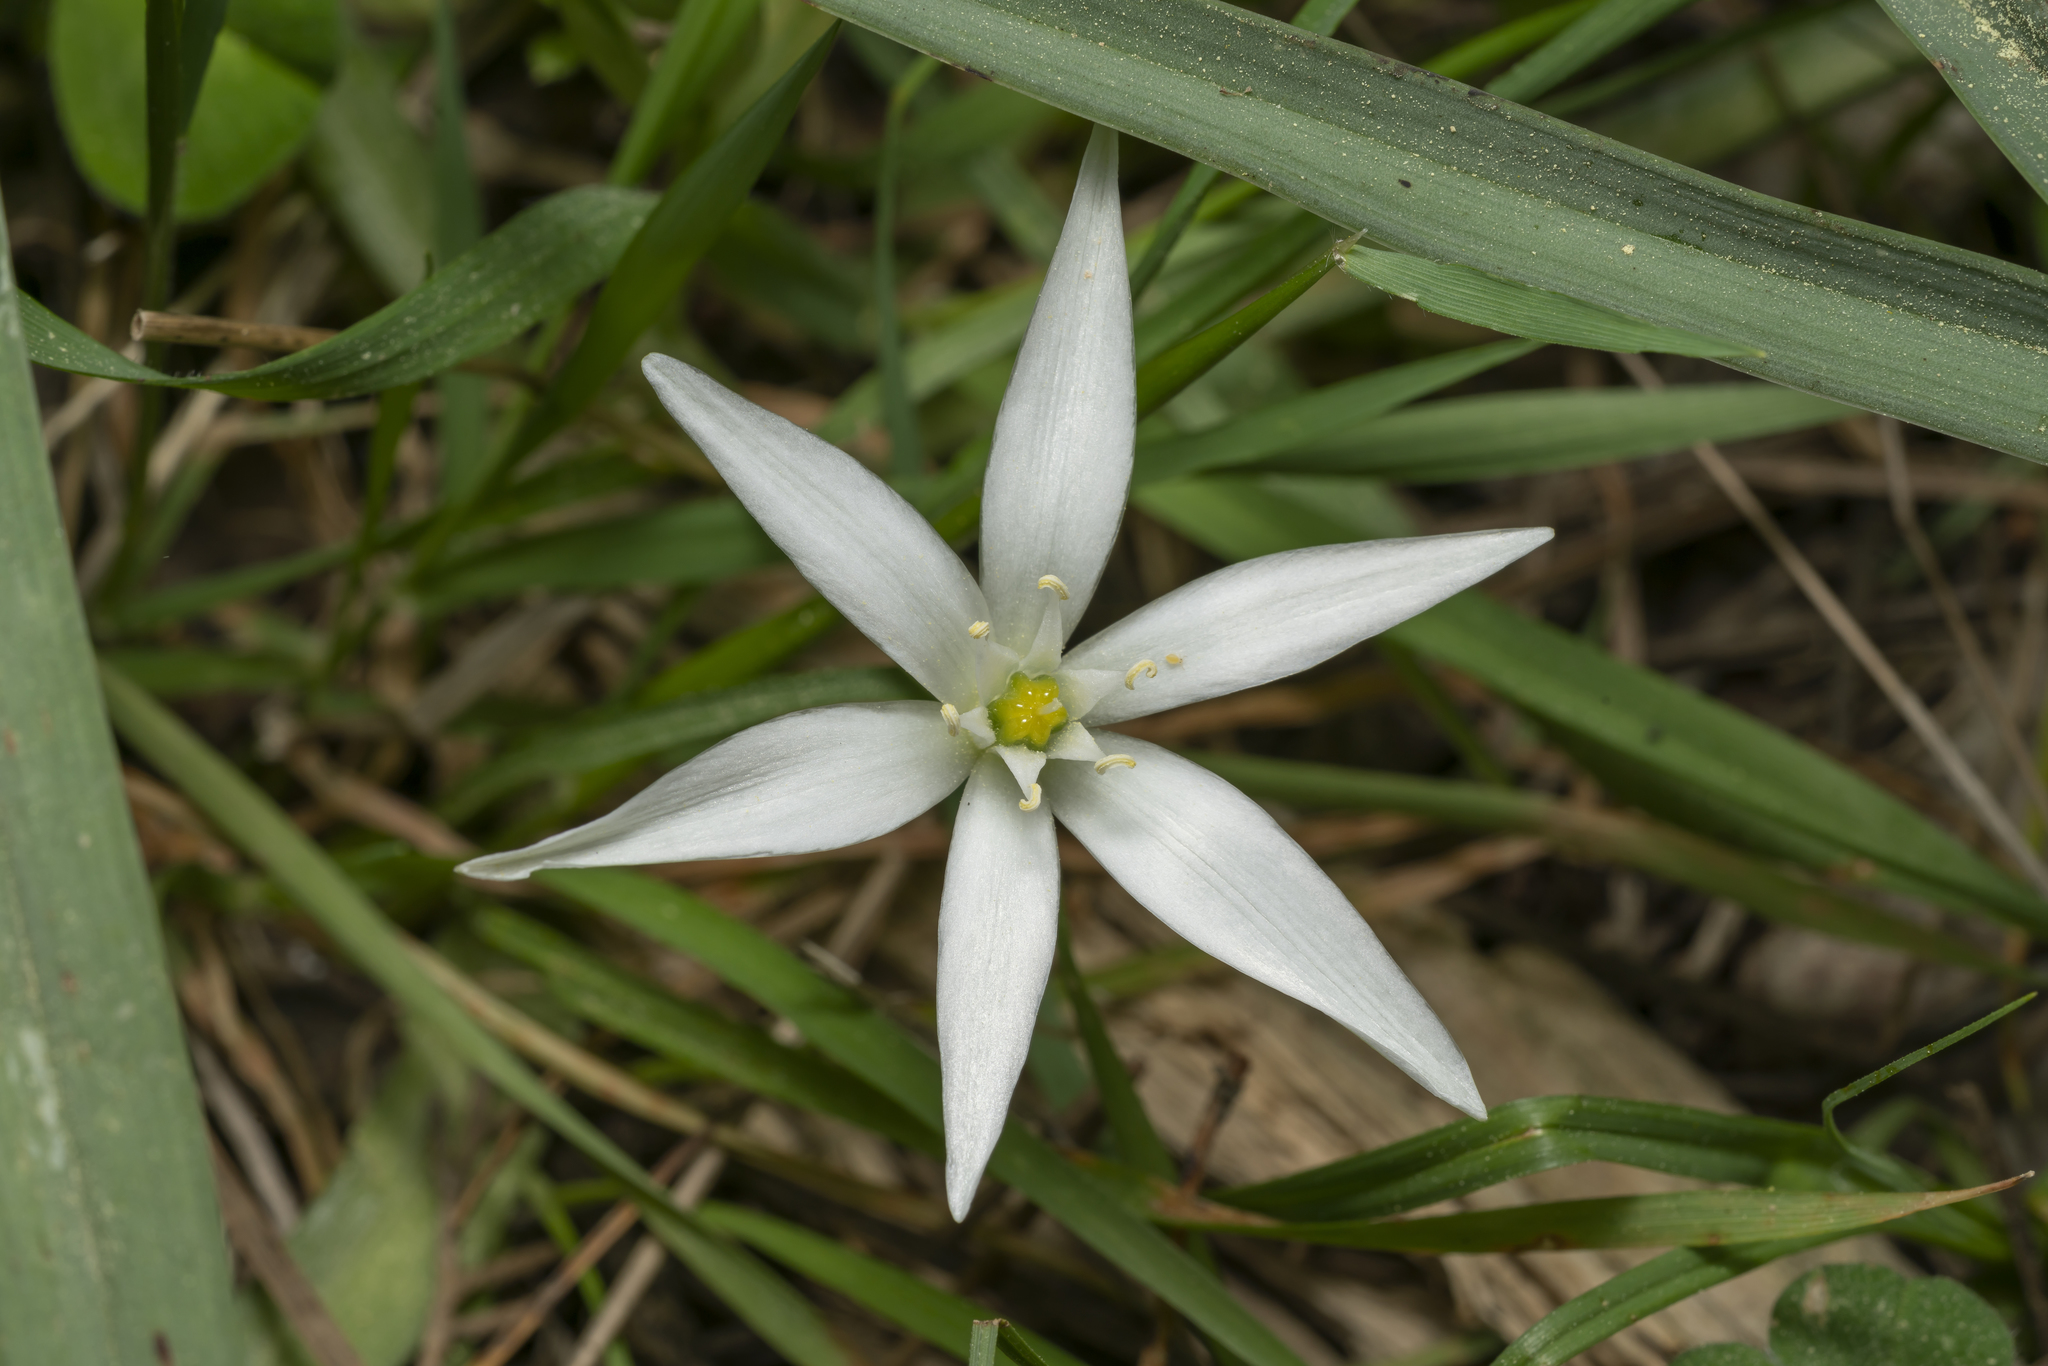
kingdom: Plantae
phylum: Tracheophyta
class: Liliopsida
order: Asparagales
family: Asparagaceae
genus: Ornithogalum
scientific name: Ornithogalum
